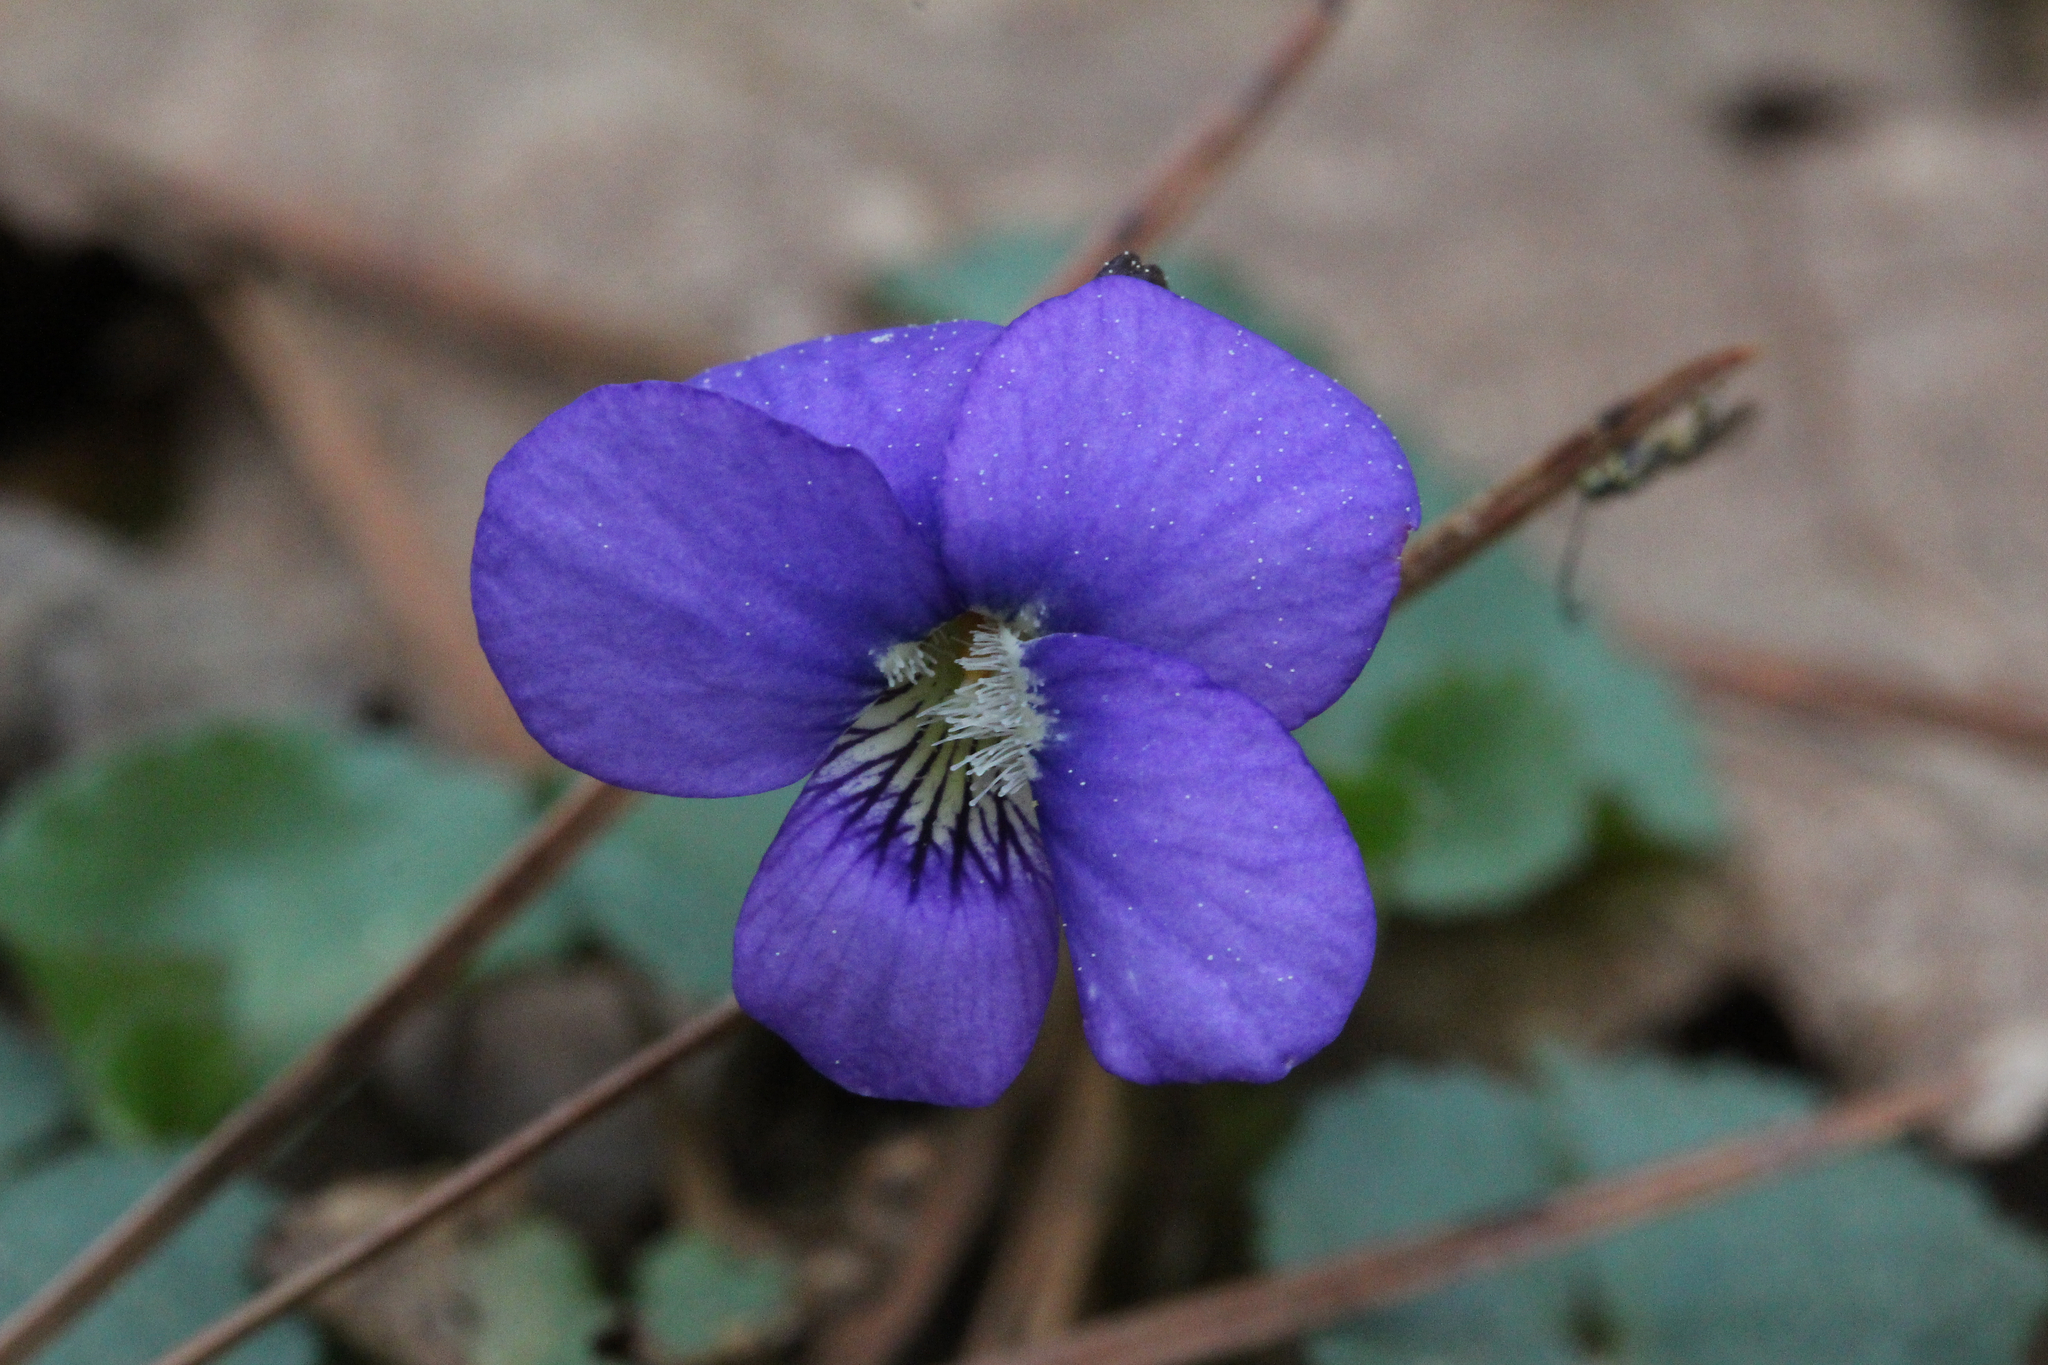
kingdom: Plantae
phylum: Tracheophyta
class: Magnoliopsida
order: Malpighiales
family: Violaceae
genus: Viola
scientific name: Viola sororia
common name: Dooryard violet
